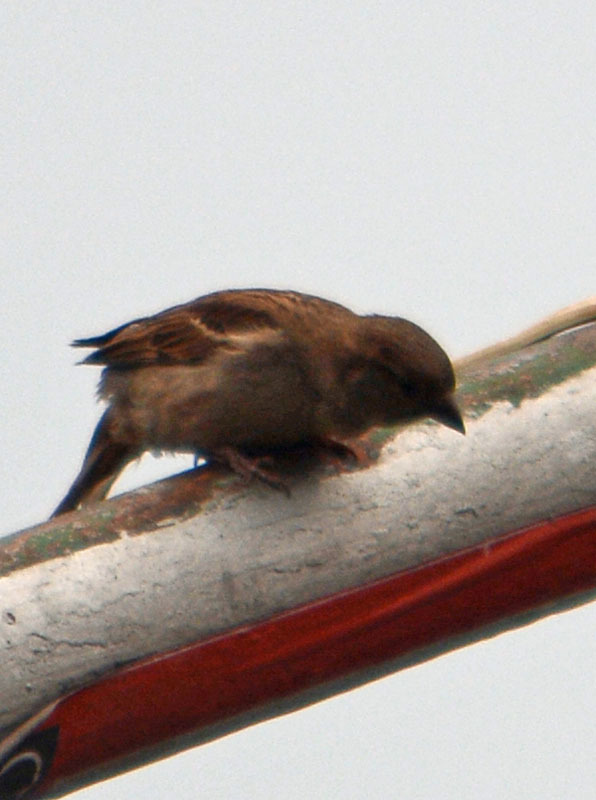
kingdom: Animalia
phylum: Chordata
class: Aves
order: Passeriformes
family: Passeridae
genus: Passer
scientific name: Passer domesticus
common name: House sparrow
